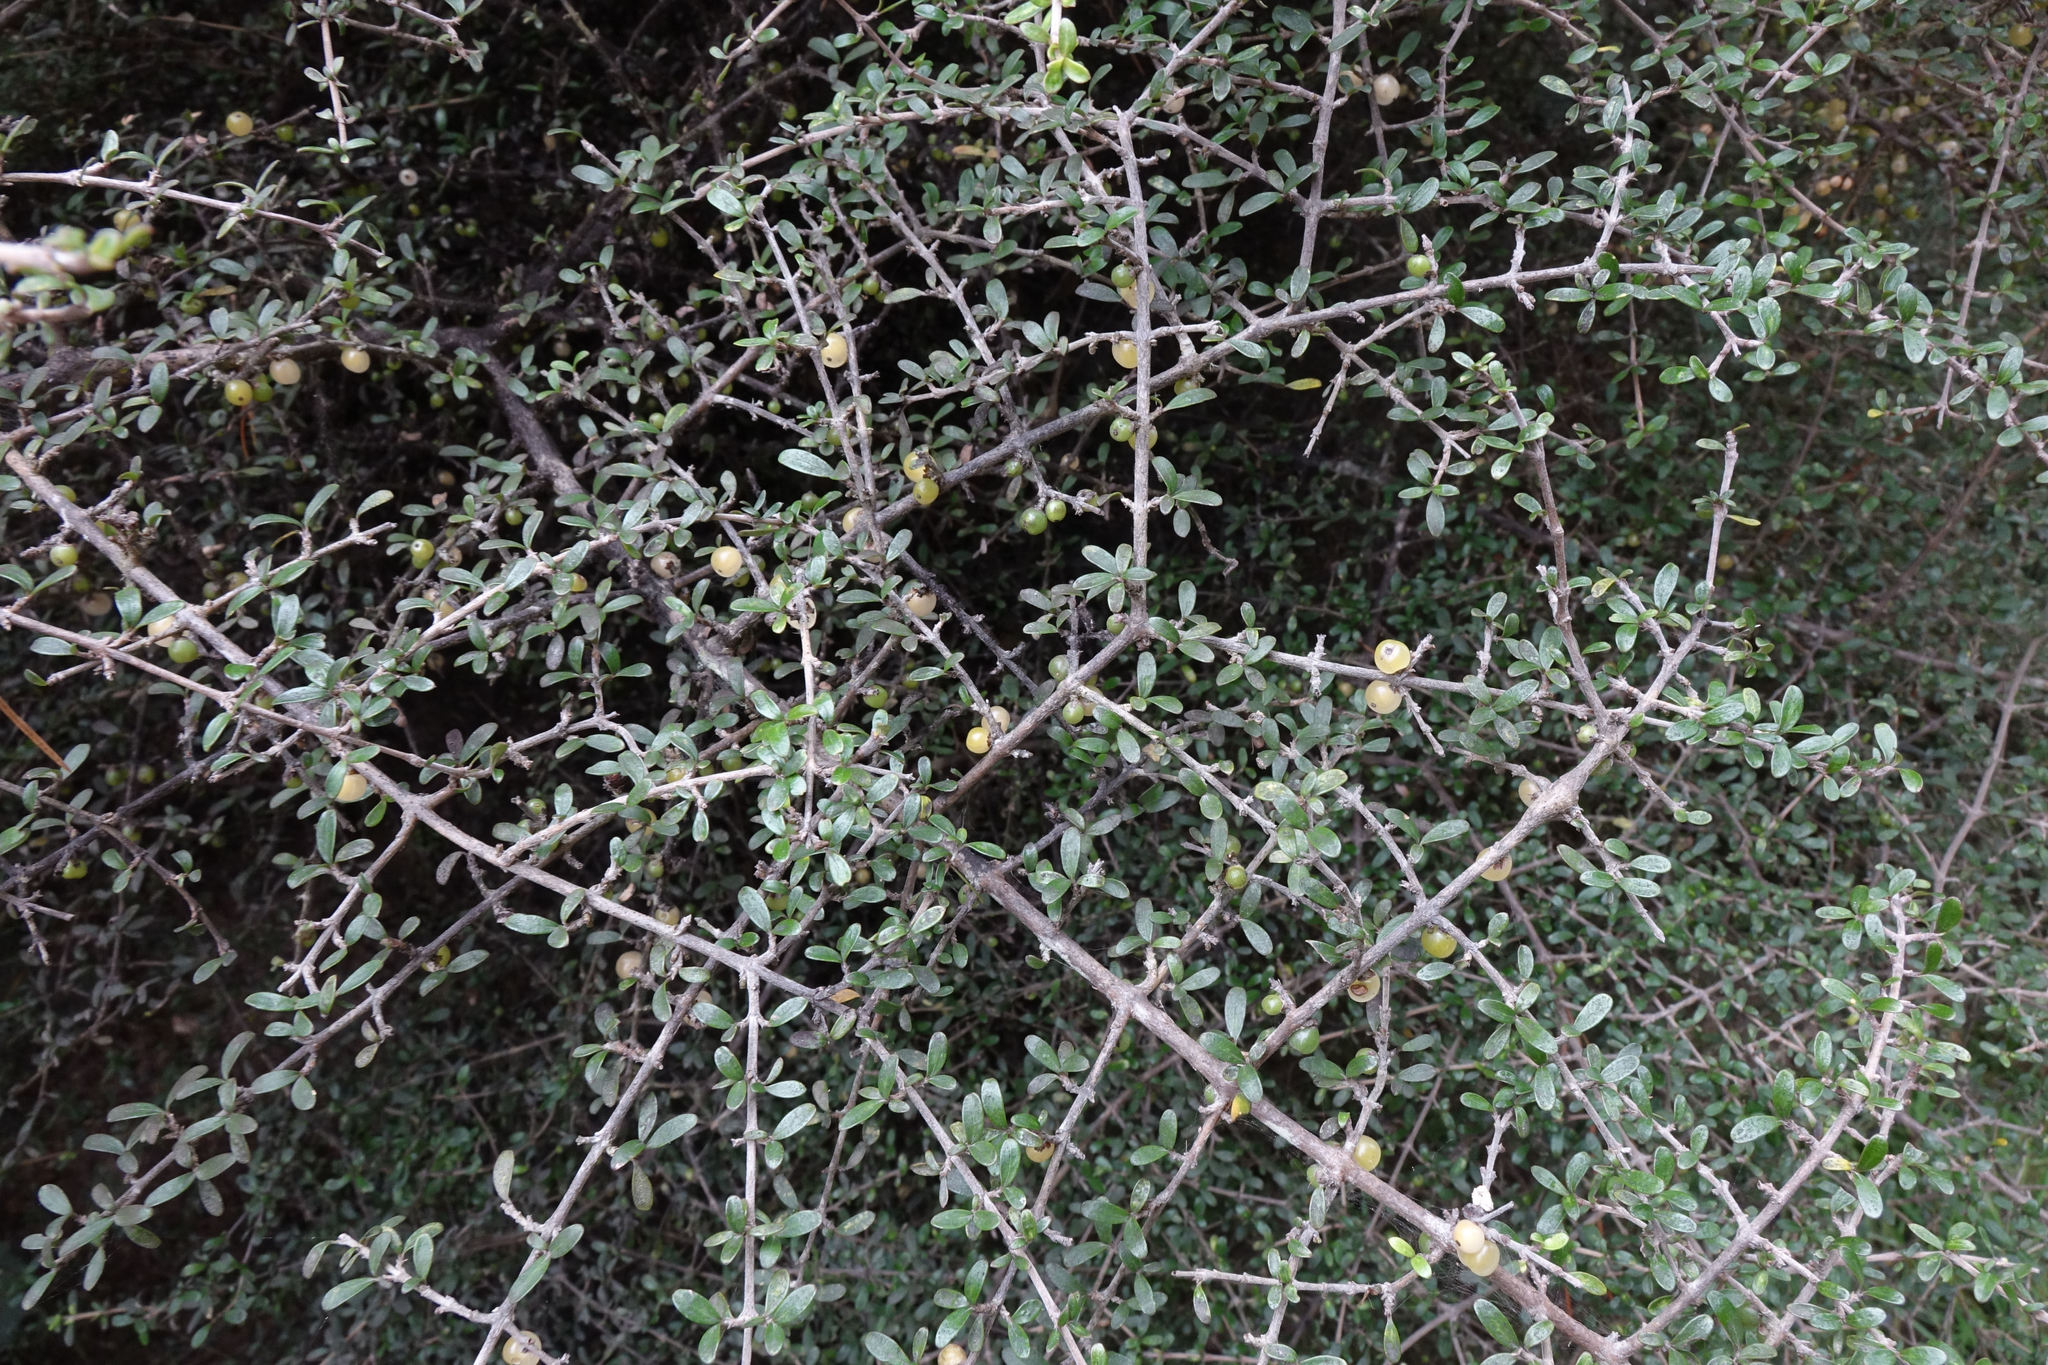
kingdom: Plantae
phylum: Tracheophyta
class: Magnoliopsida
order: Gentianales
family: Rubiaceae
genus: Coprosma
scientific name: Coprosma dumosa
